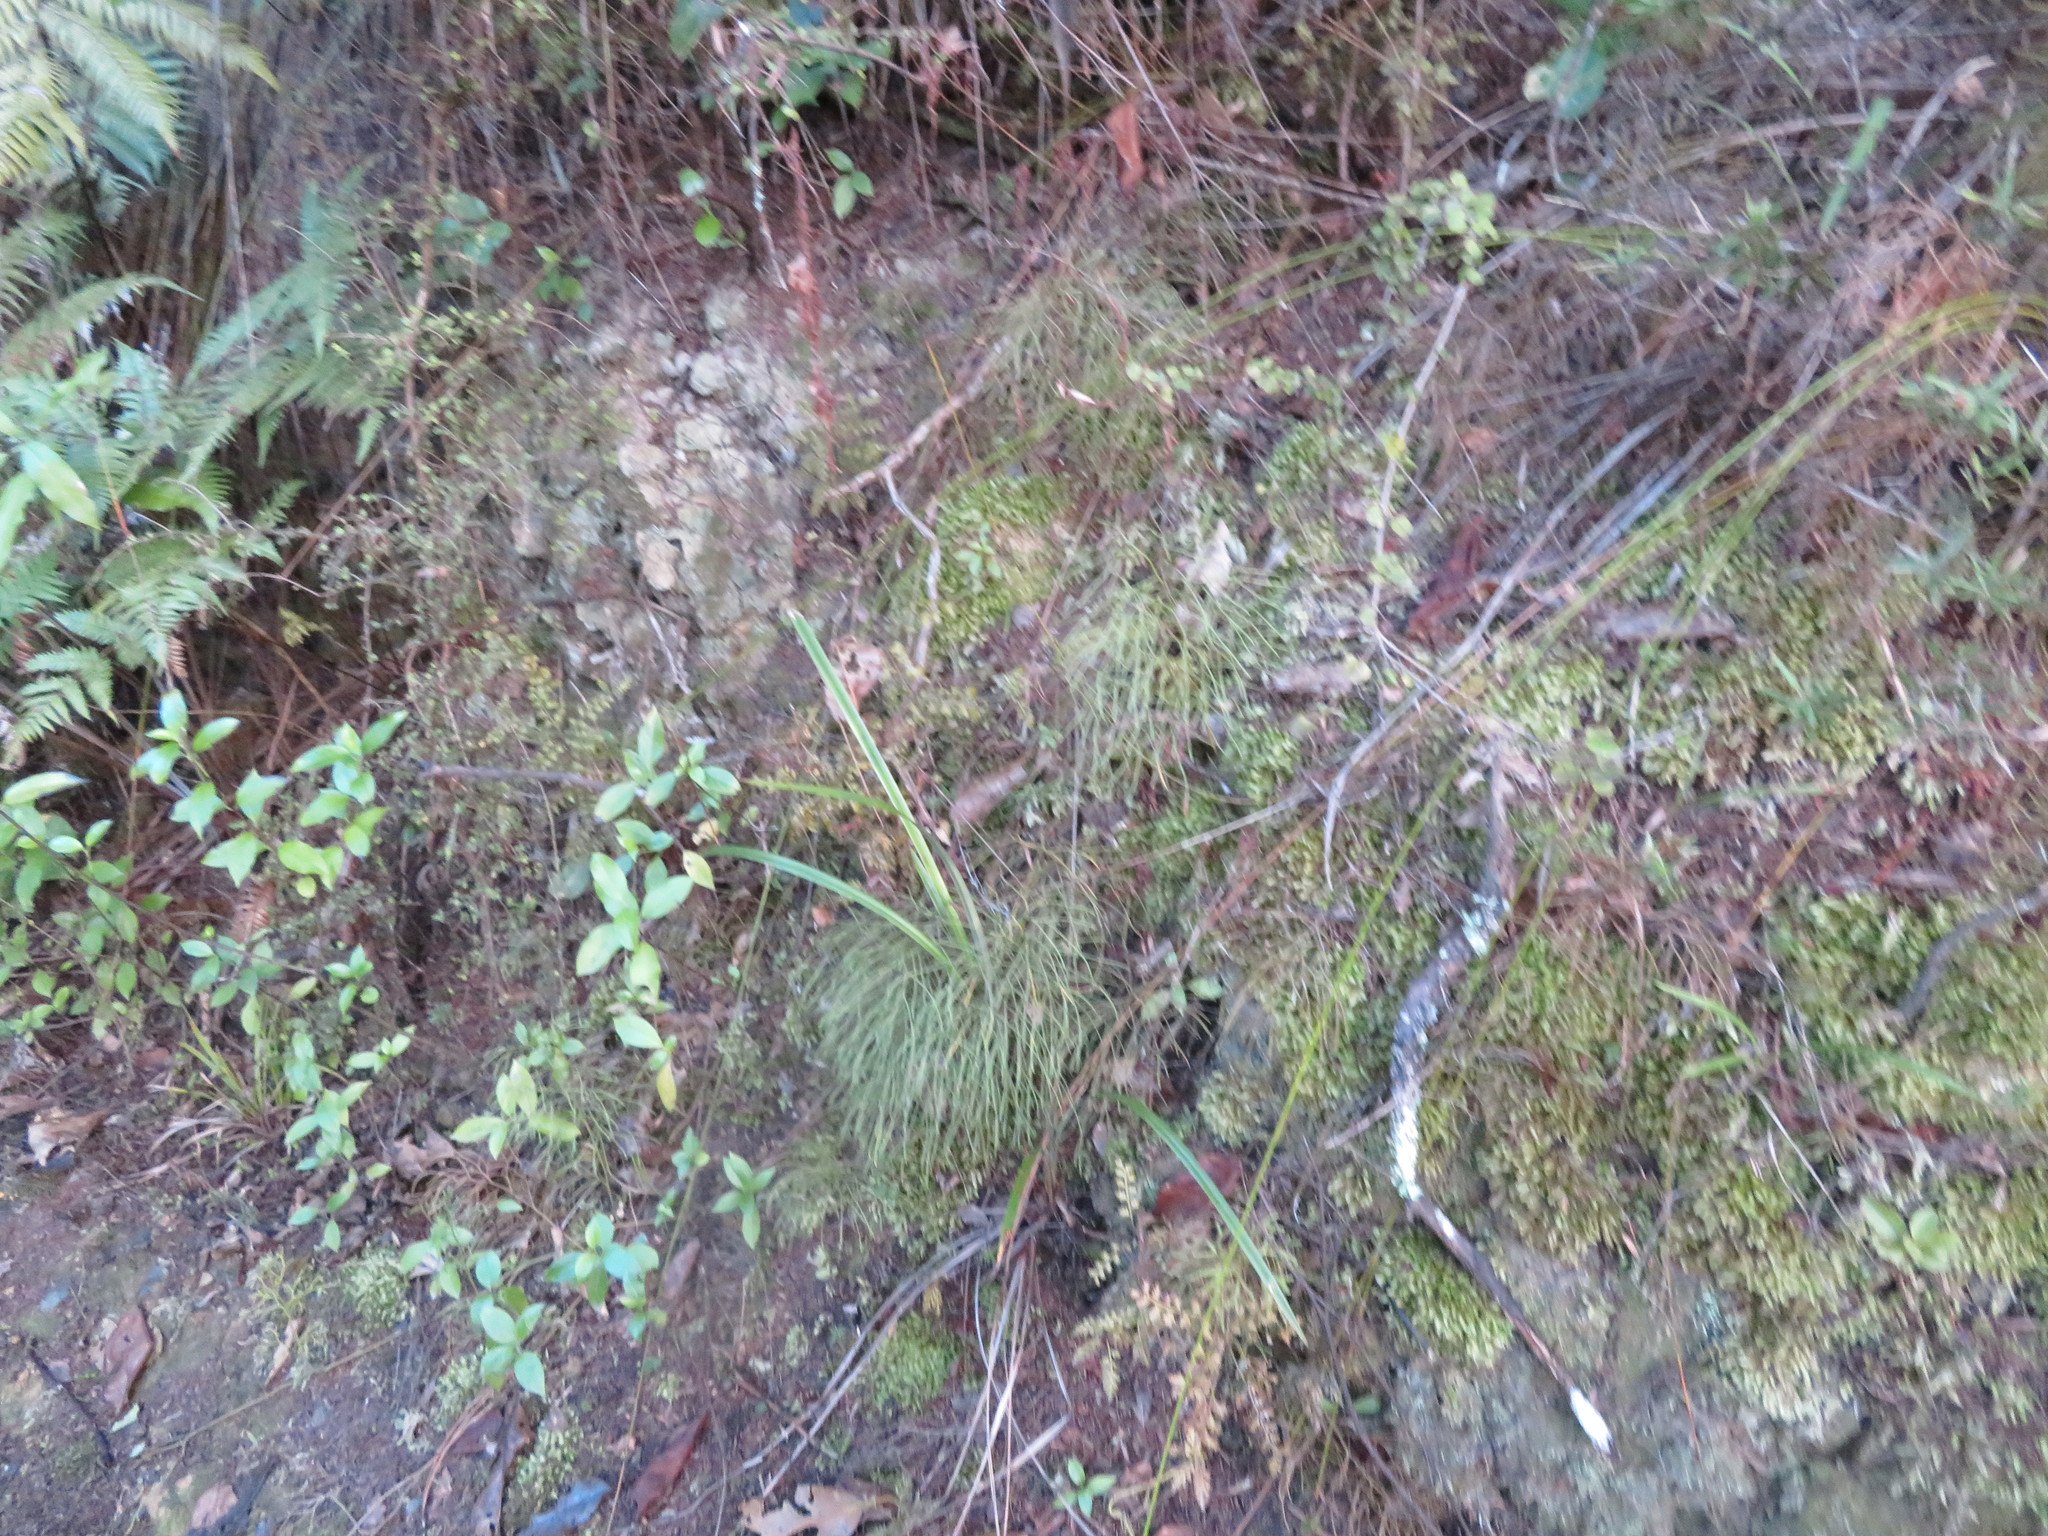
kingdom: Plantae
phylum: Tracheophyta
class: Pinopsida
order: Pinales
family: Phyllocladaceae
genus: Phyllocladus
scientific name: Phyllocladus trichomanoides
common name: Celery pine
